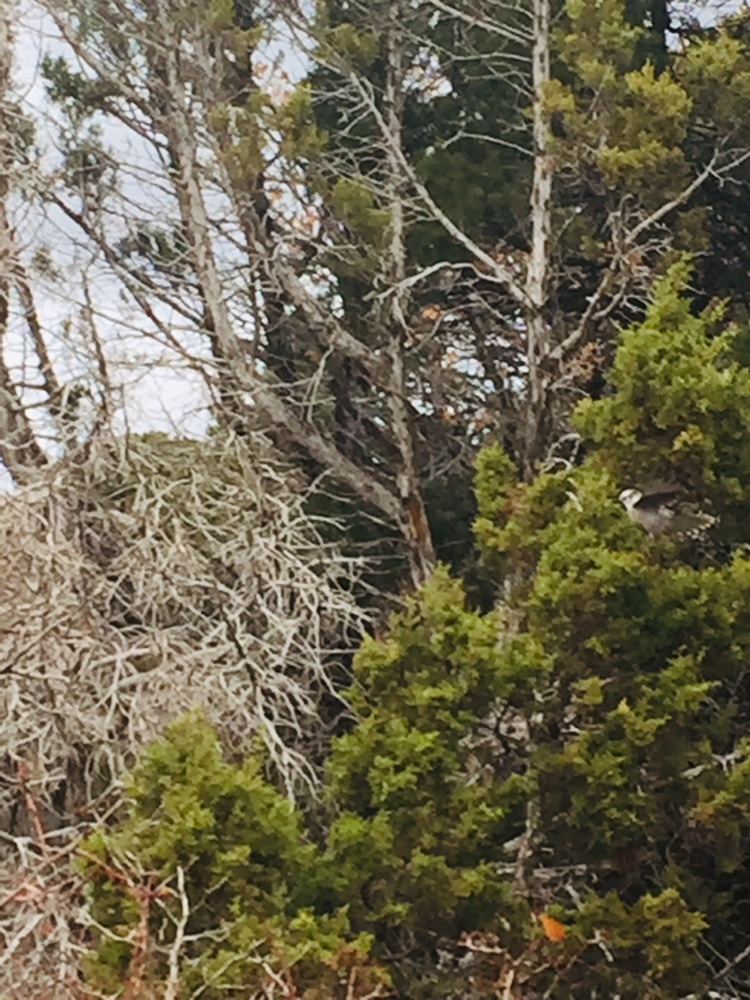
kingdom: Animalia
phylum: Chordata
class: Aves
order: Passeriformes
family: Corvidae
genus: Perisoreus
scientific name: Perisoreus canadensis
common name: Gray jay
